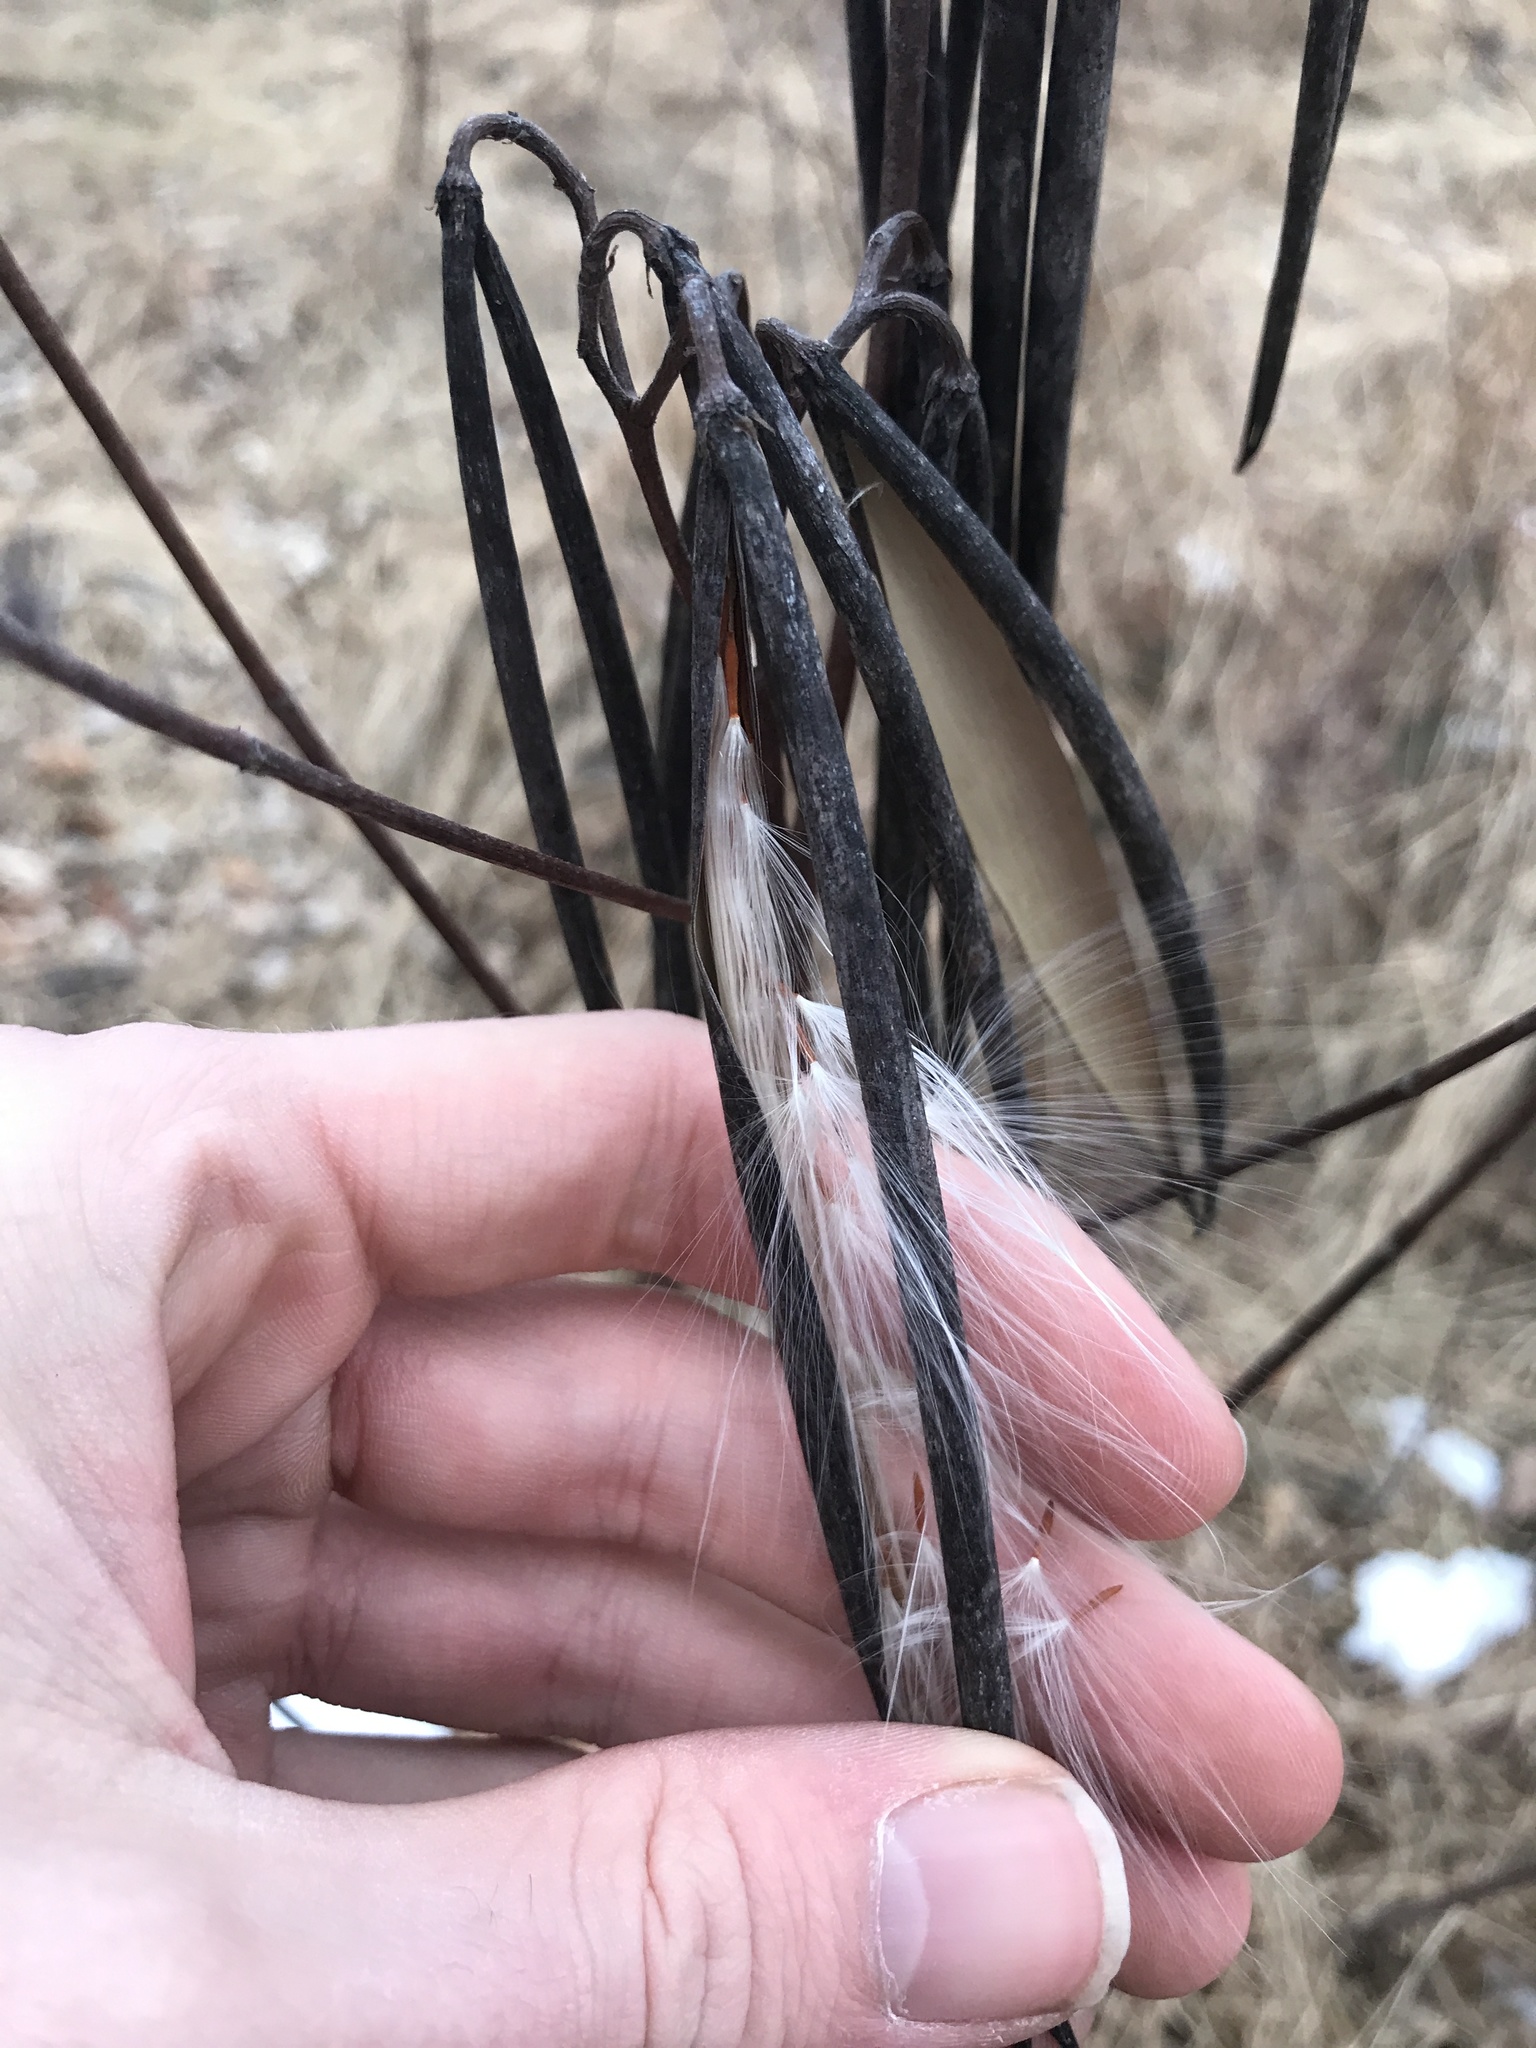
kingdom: Plantae
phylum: Tracheophyta
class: Magnoliopsida
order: Gentianales
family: Apocynaceae
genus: Apocynum
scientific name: Apocynum cannabinum
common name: Hemp dogbane
